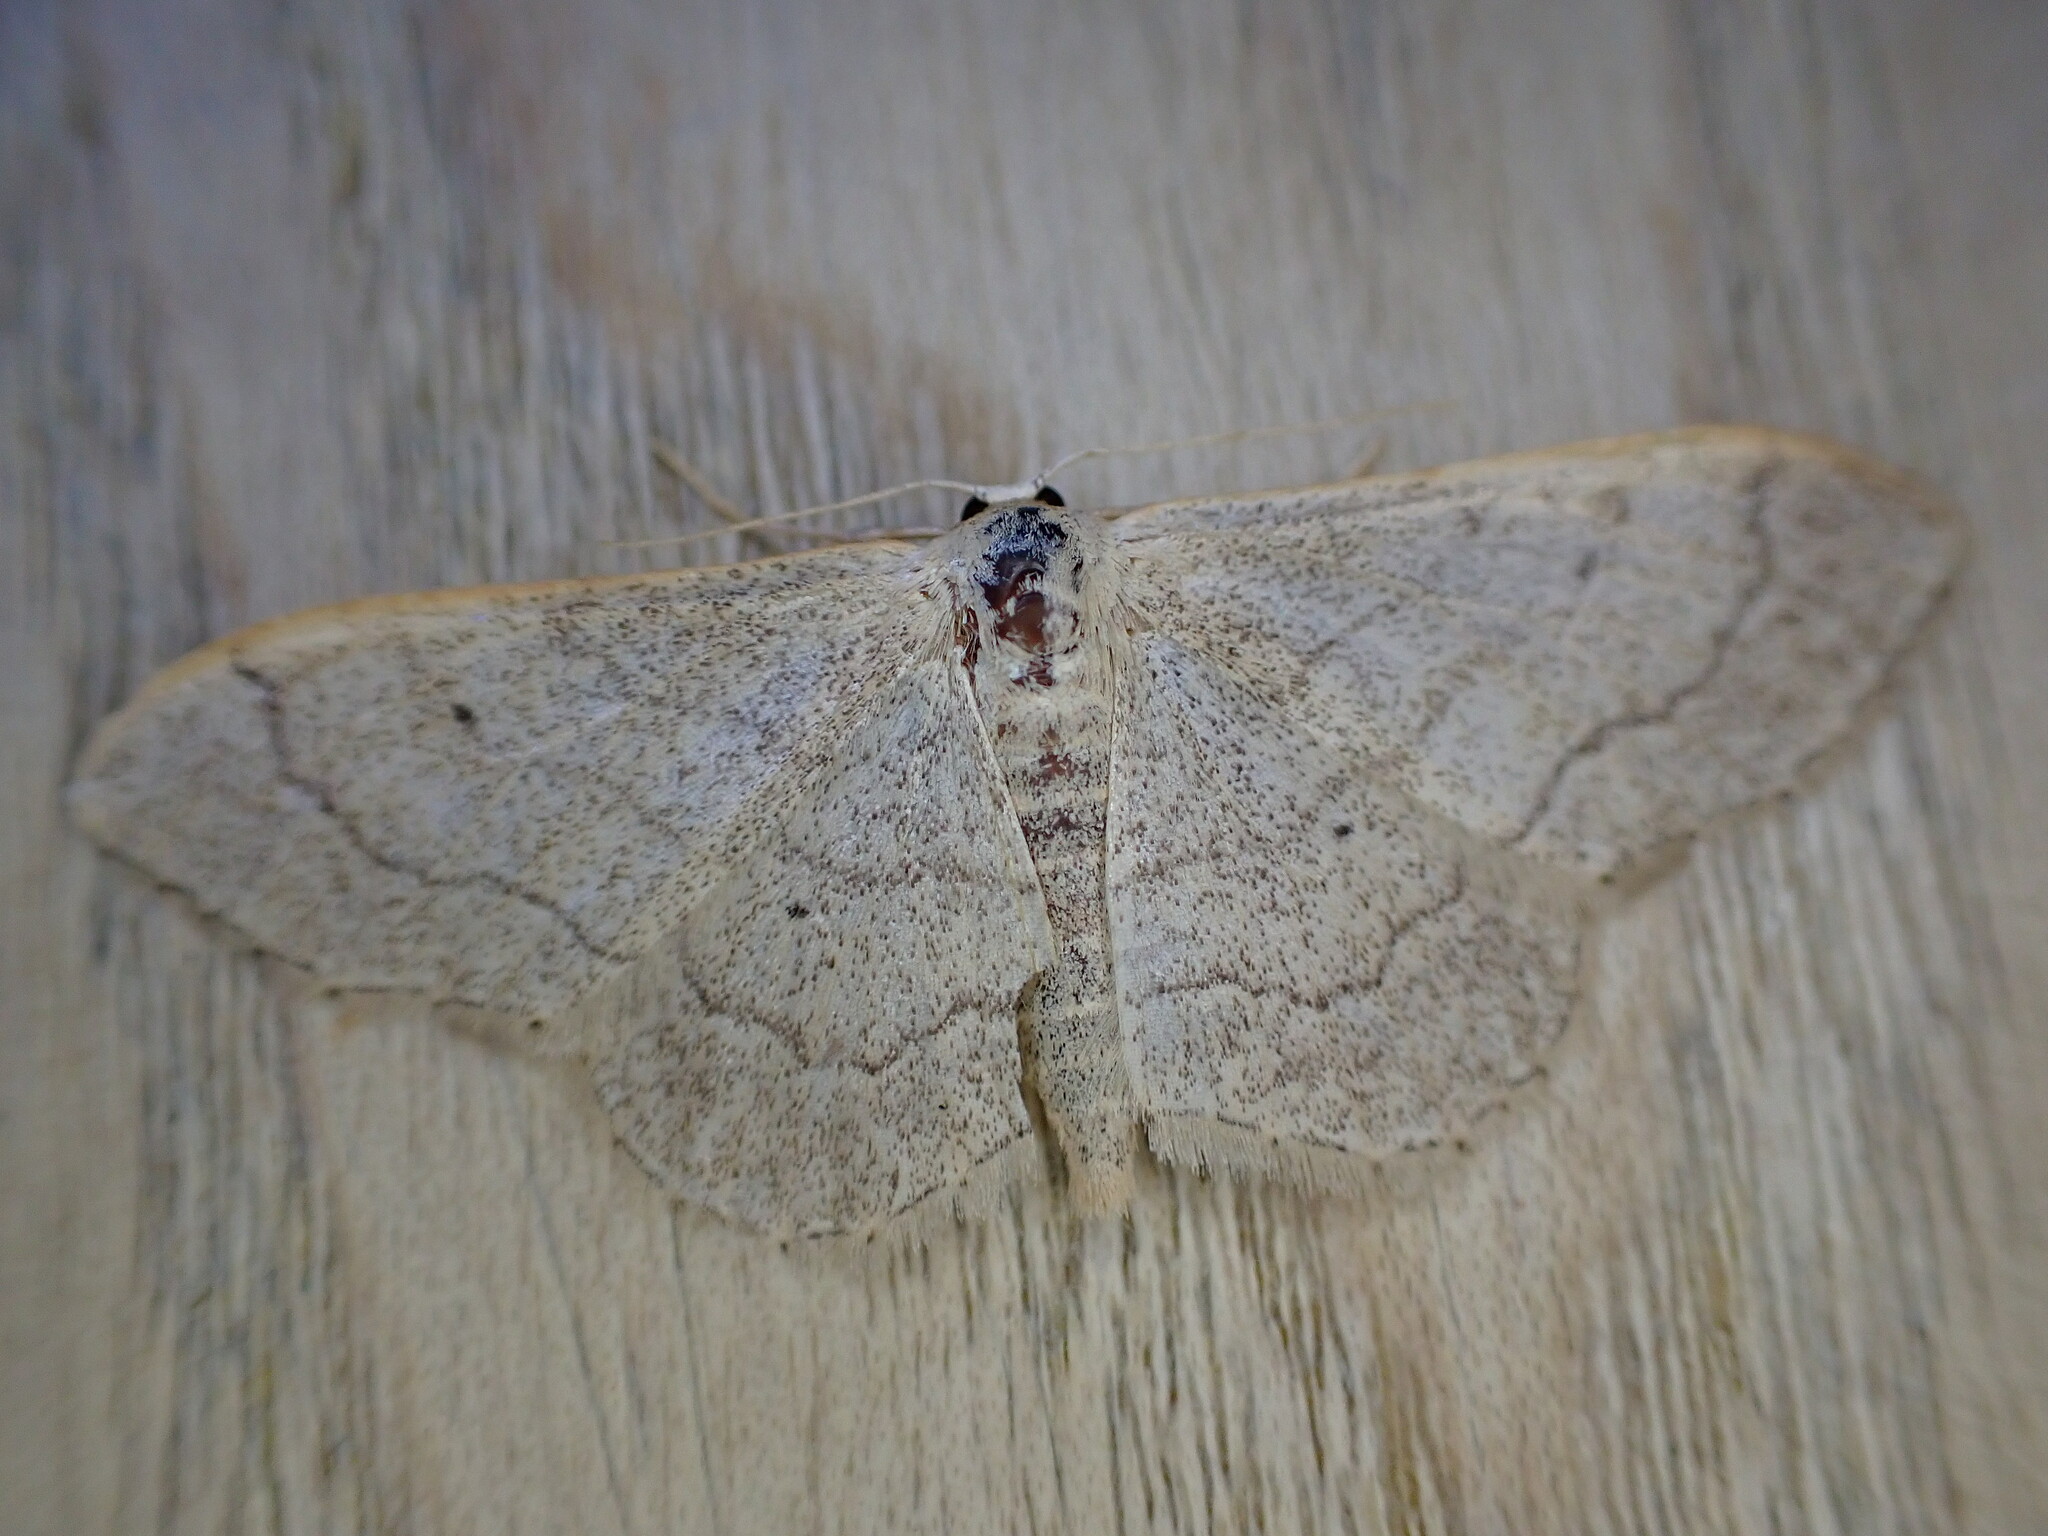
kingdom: Animalia
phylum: Arthropoda
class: Insecta
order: Lepidoptera
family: Geometridae
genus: Idaea
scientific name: Idaea aversata
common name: Riband wave
